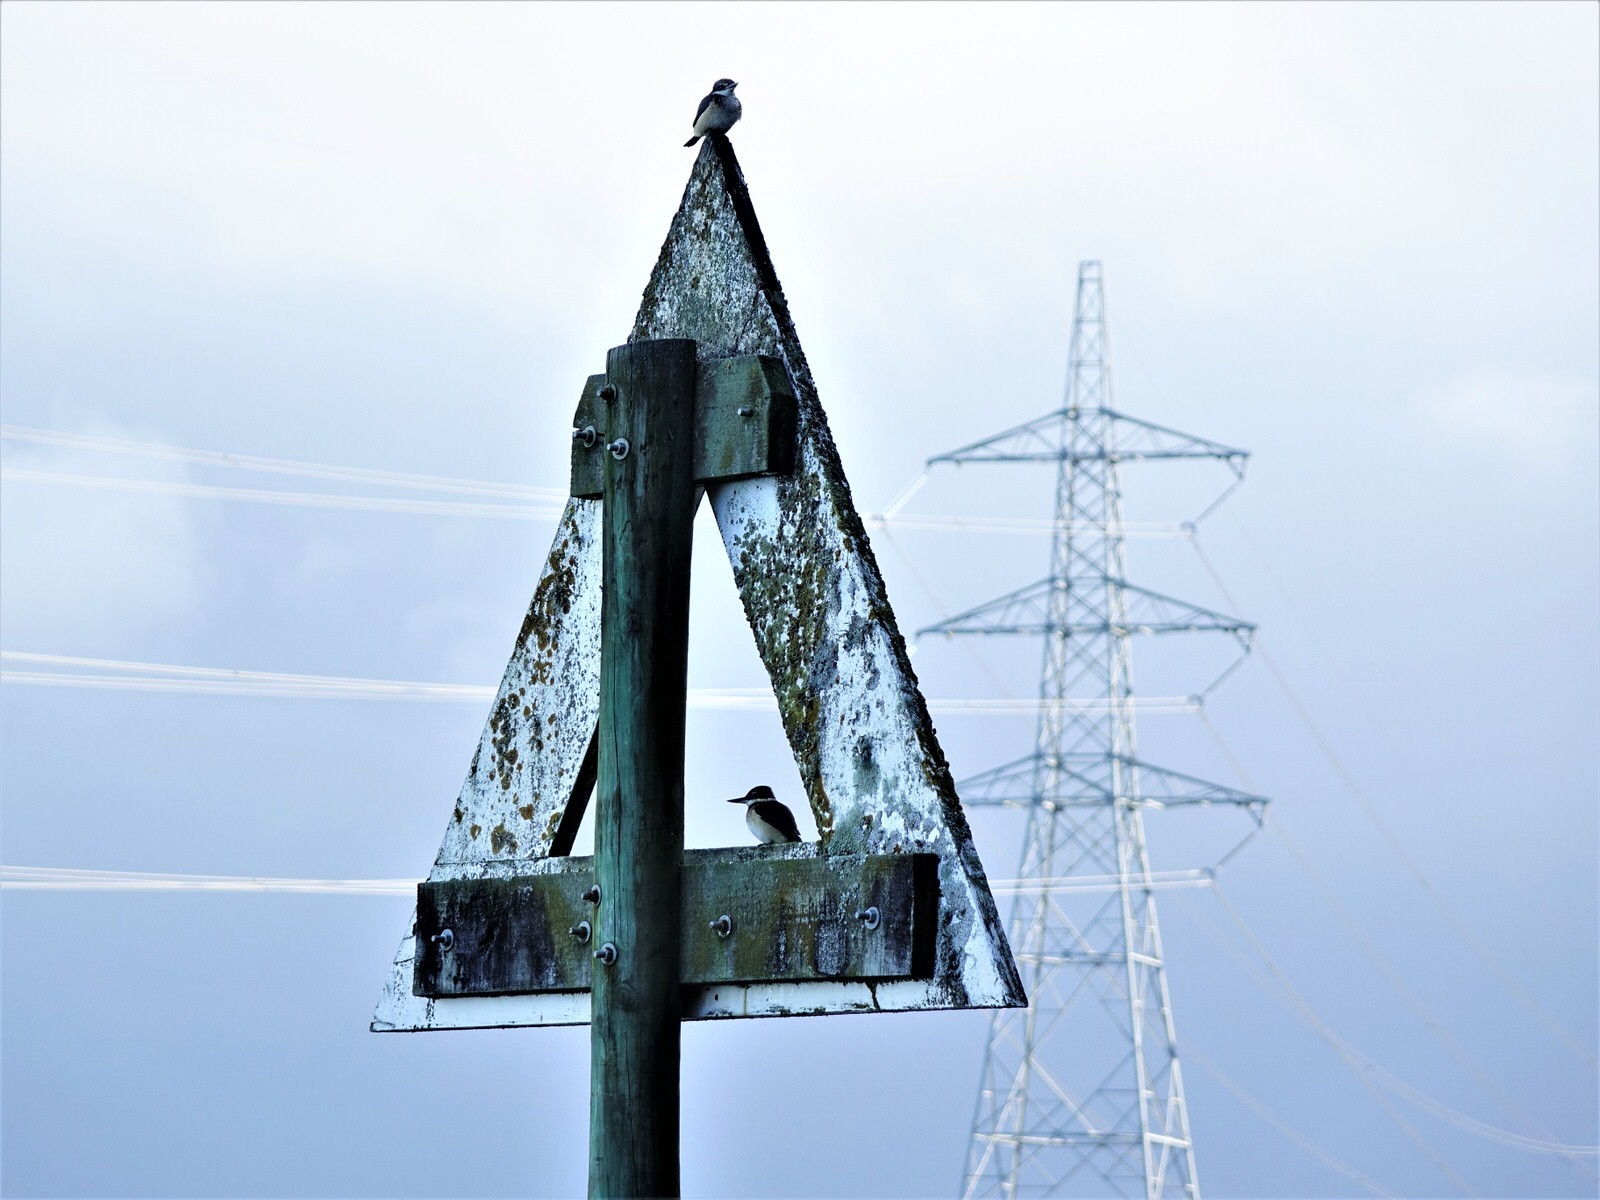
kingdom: Animalia
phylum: Chordata
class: Aves
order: Coraciiformes
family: Alcedinidae
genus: Todiramphus
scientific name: Todiramphus sanctus
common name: Sacred kingfisher
